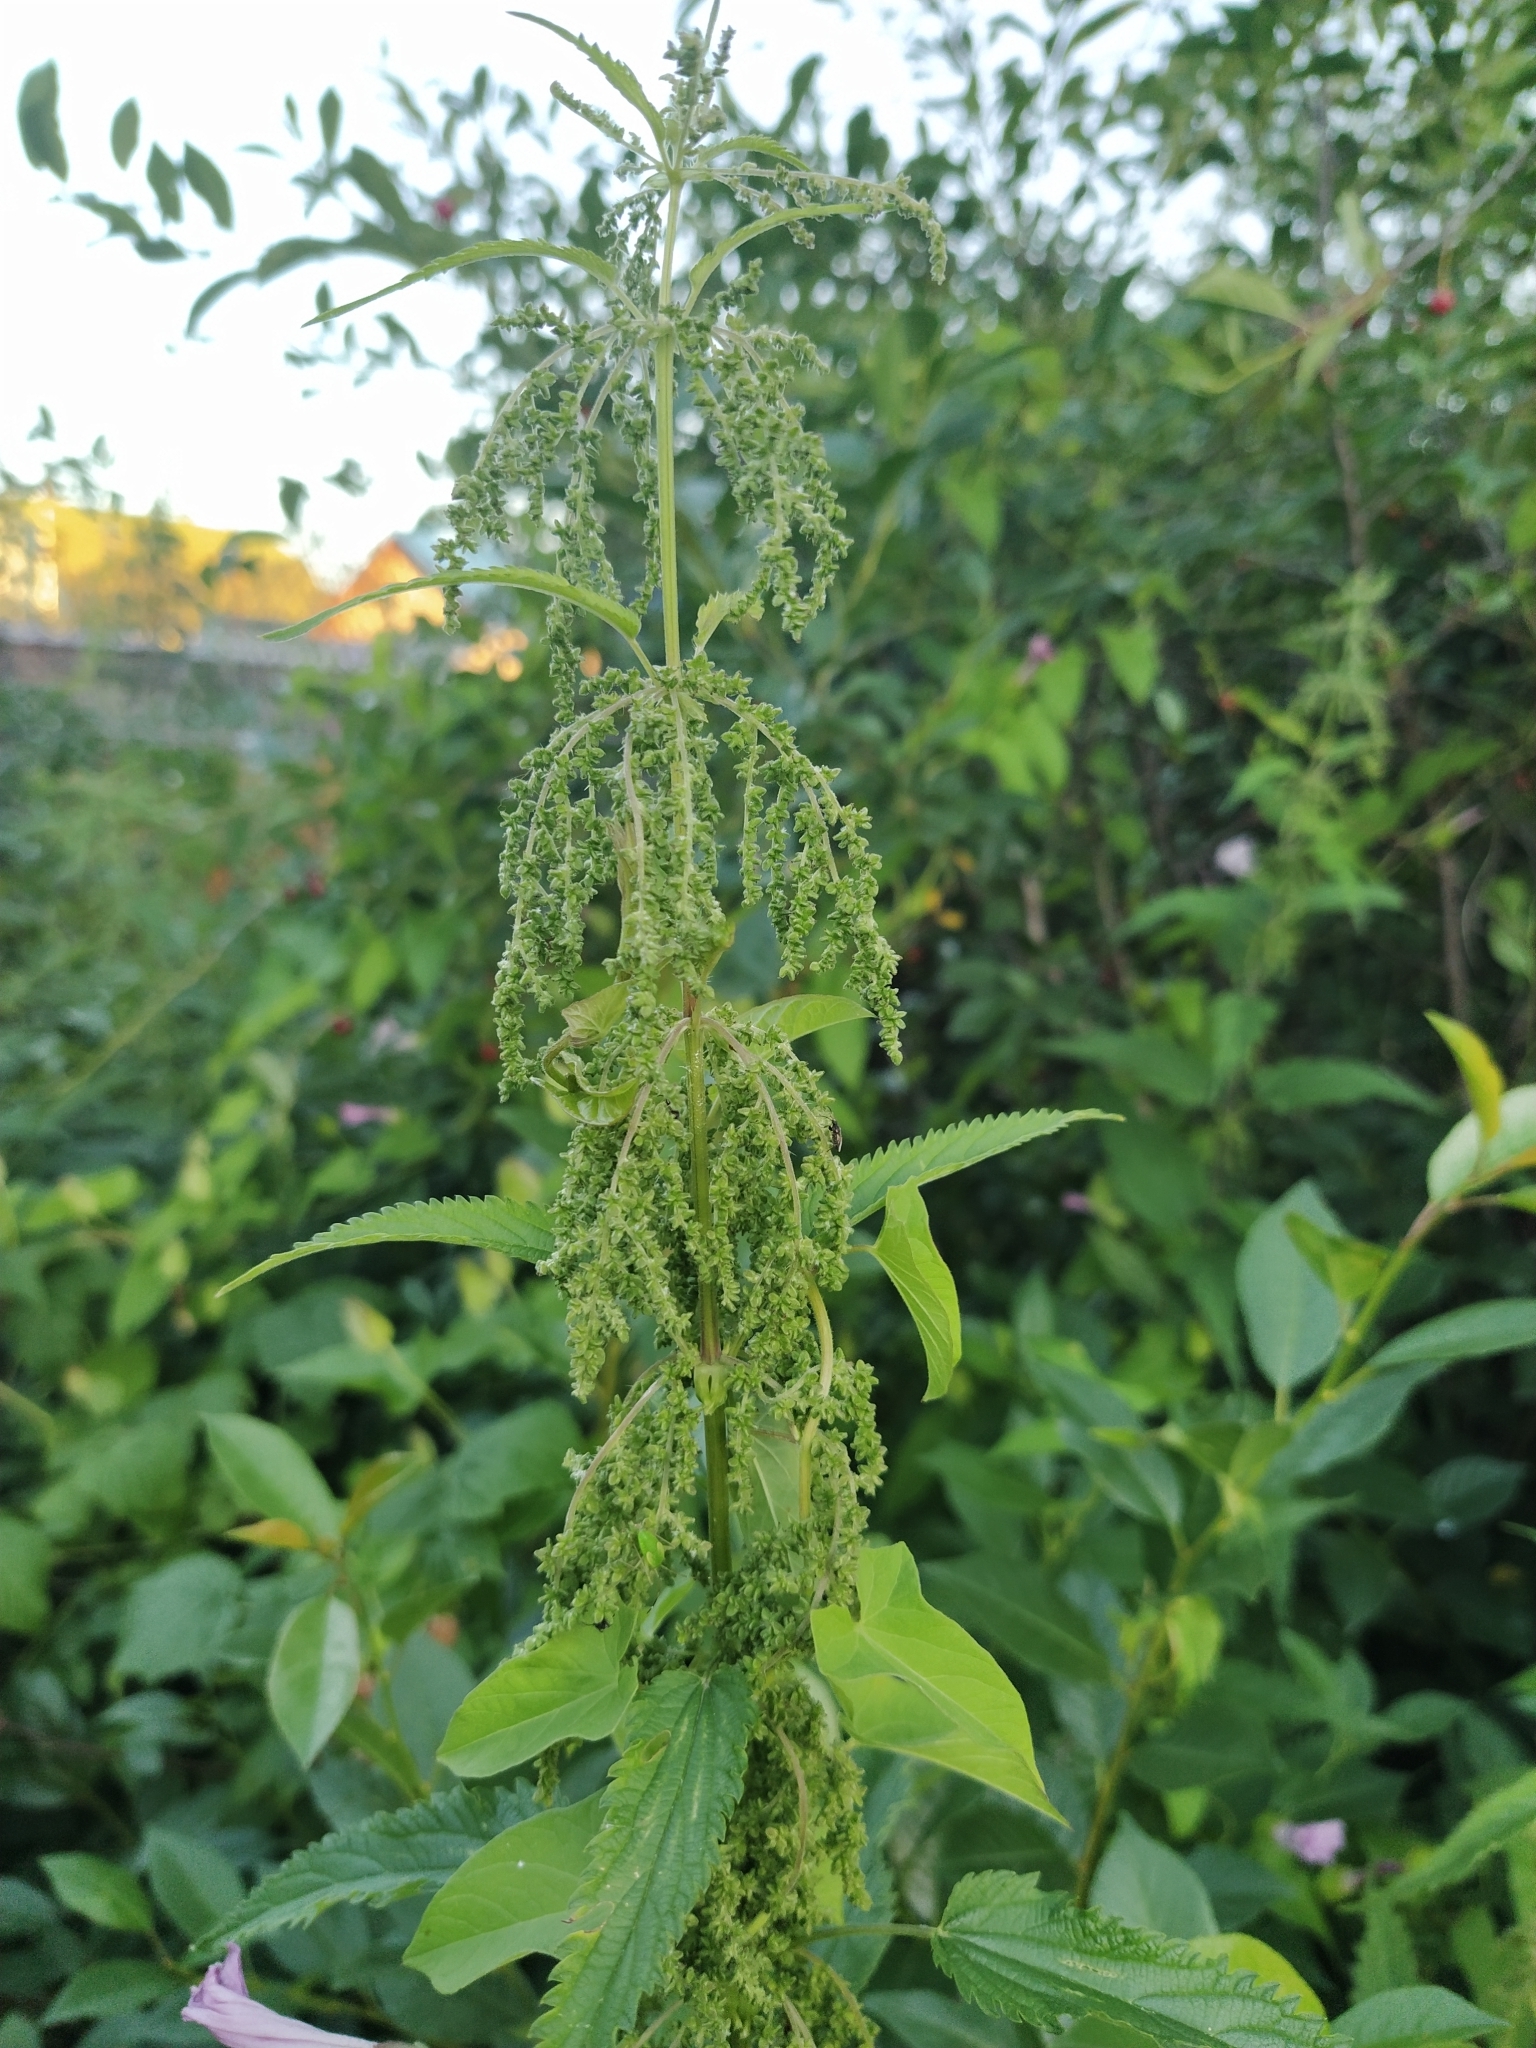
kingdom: Plantae
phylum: Tracheophyta
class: Magnoliopsida
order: Rosales
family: Urticaceae
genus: Urtica
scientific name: Urtica dioica
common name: Common nettle
